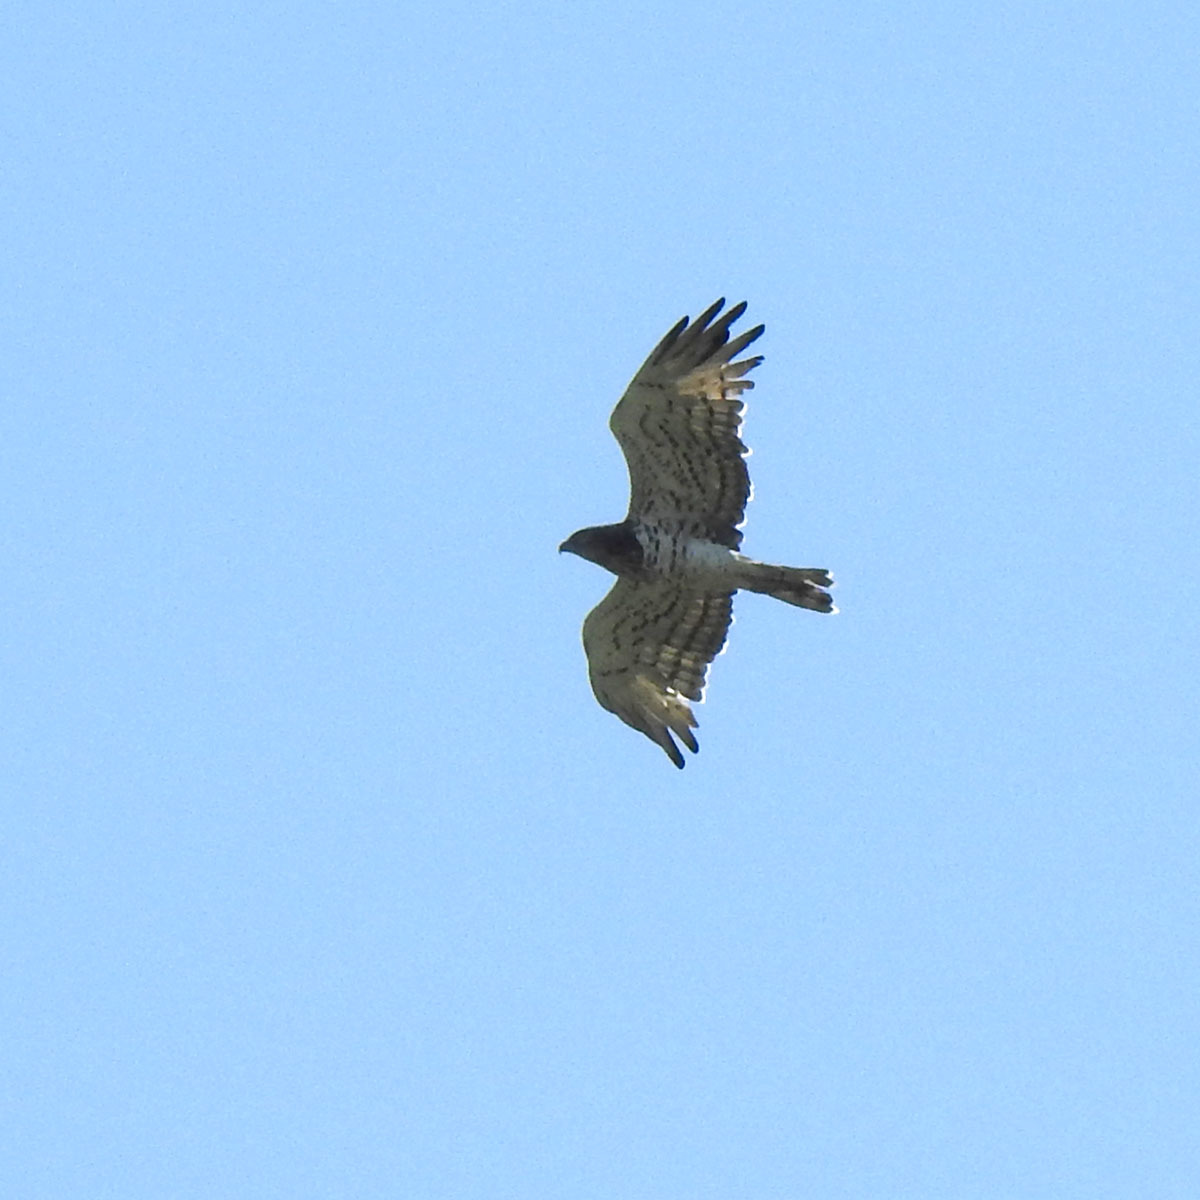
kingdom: Animalia
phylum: Chordata
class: Aves
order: Accipitriformes
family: Accipitridae
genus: Circaetus
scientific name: Circaetus gallicus
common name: Short-toed snake eagle
